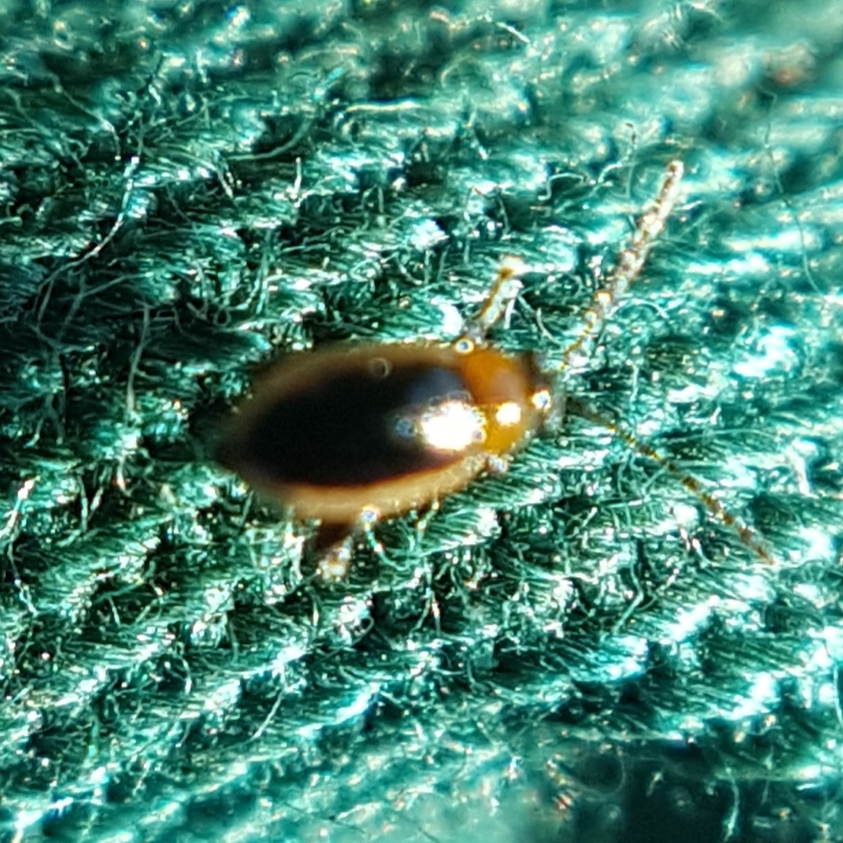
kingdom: Animalia
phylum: Arthropoda
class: Insecta
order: Coleoptera
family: Chrysomelidae
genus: Longitarsus
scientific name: Longitarsus dorsalis
